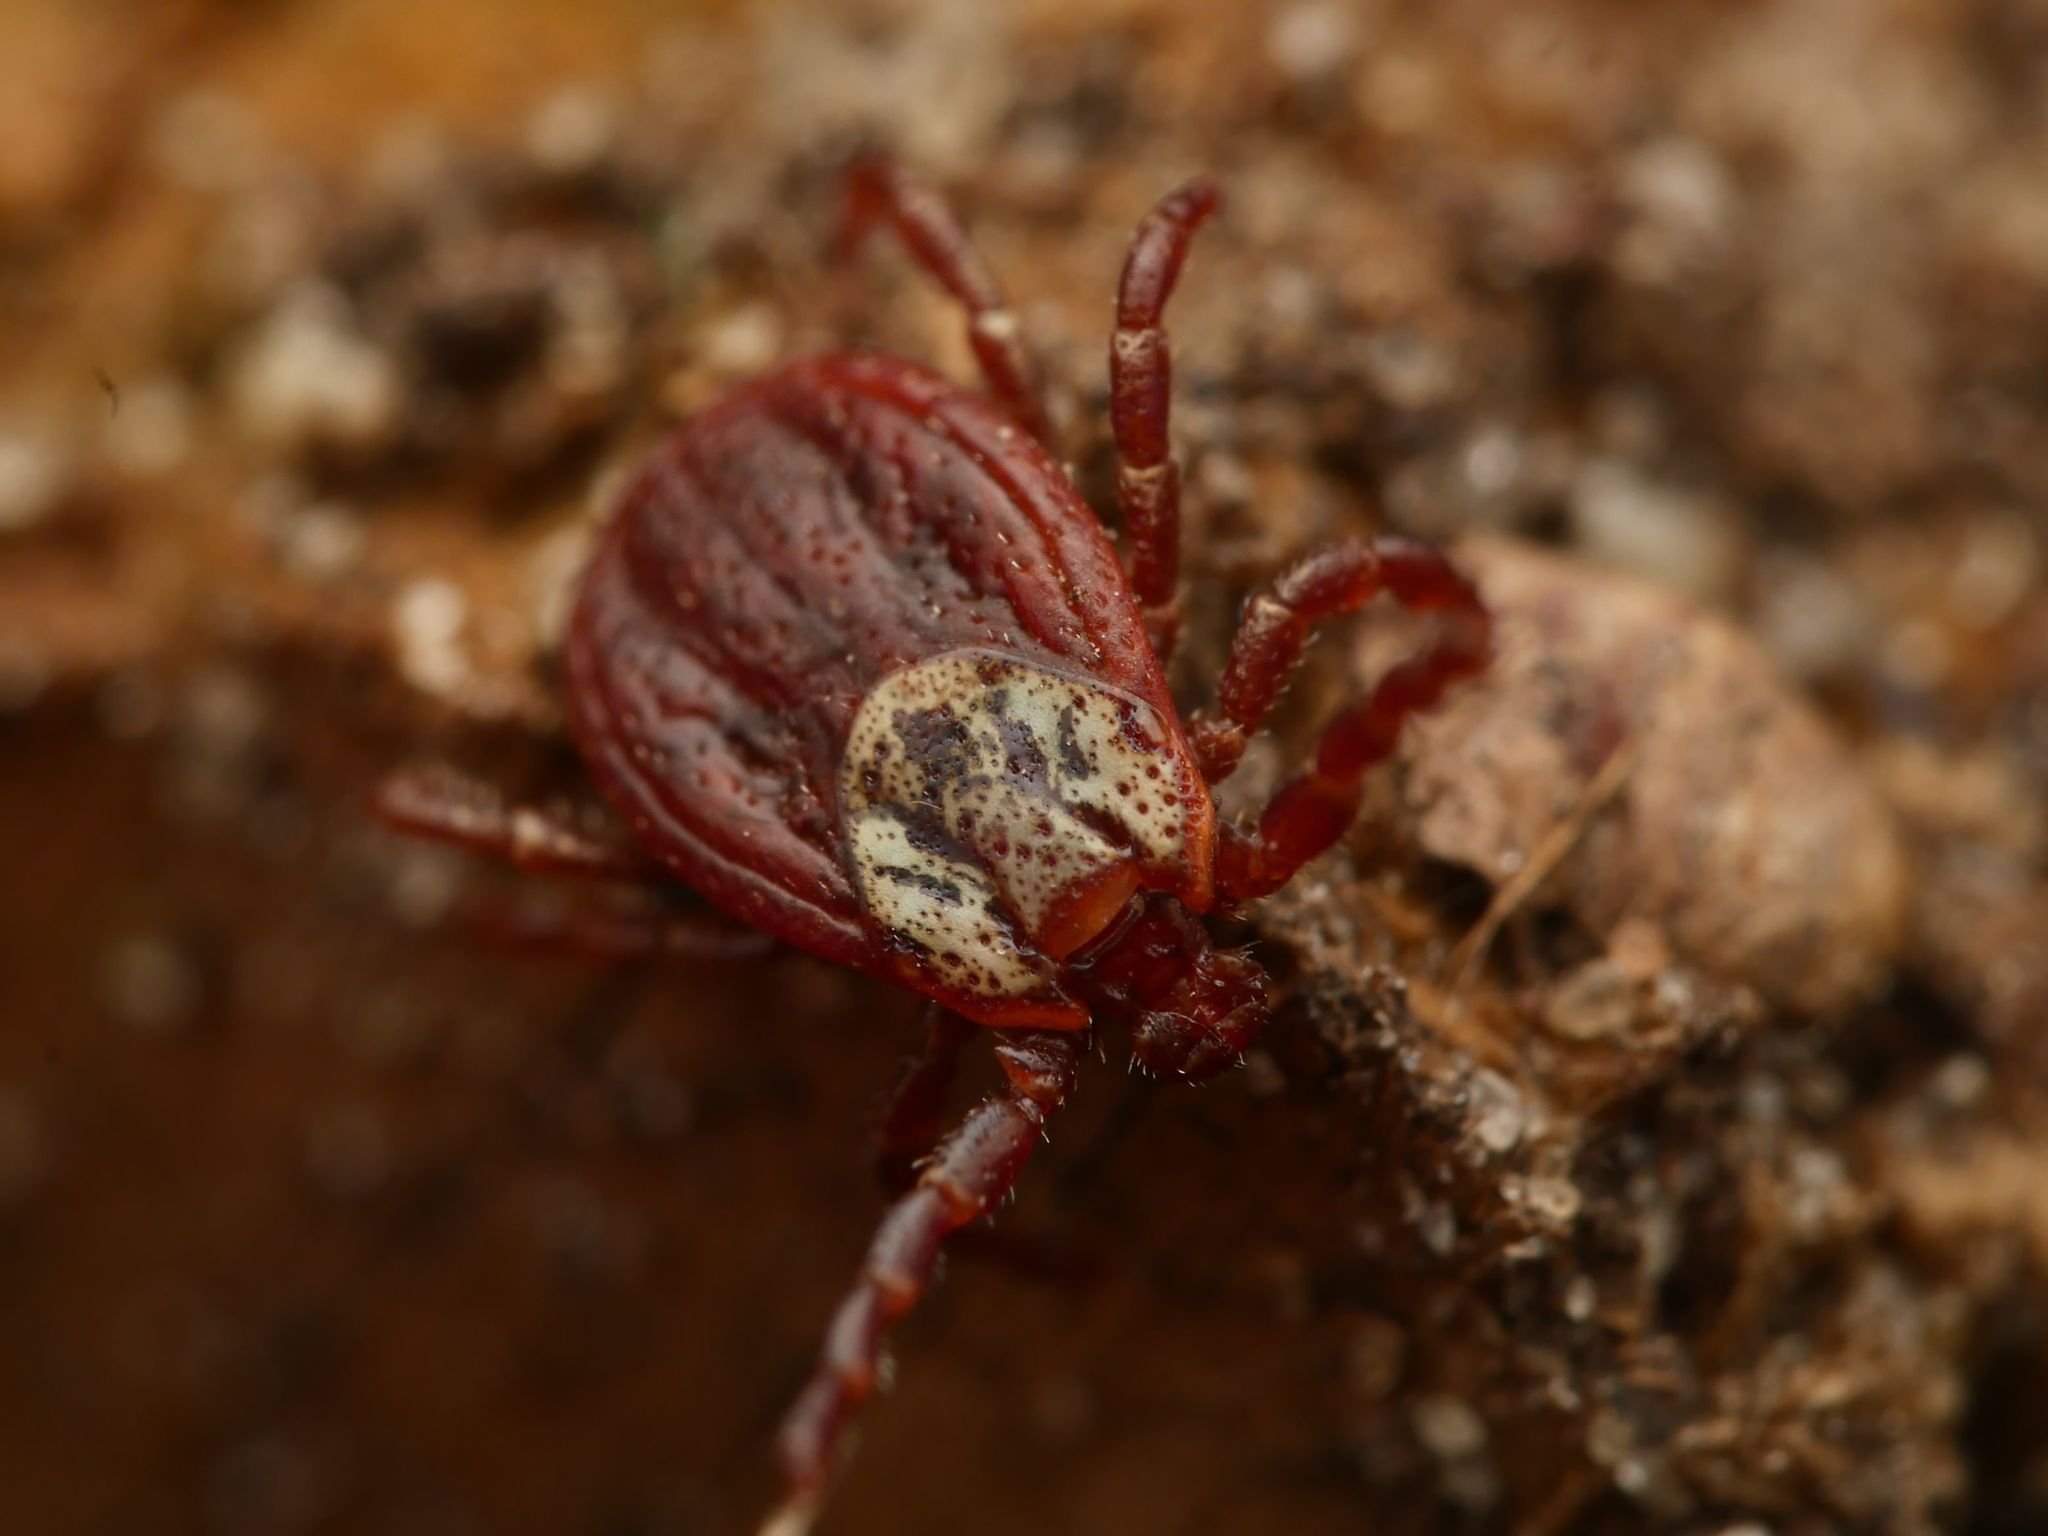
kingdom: Animalia
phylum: Arthropoda
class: Arachnida
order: Ixodida
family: Ixodidae
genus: Dermacentor
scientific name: Dermacentor reticulatus
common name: Ornate cow tick
